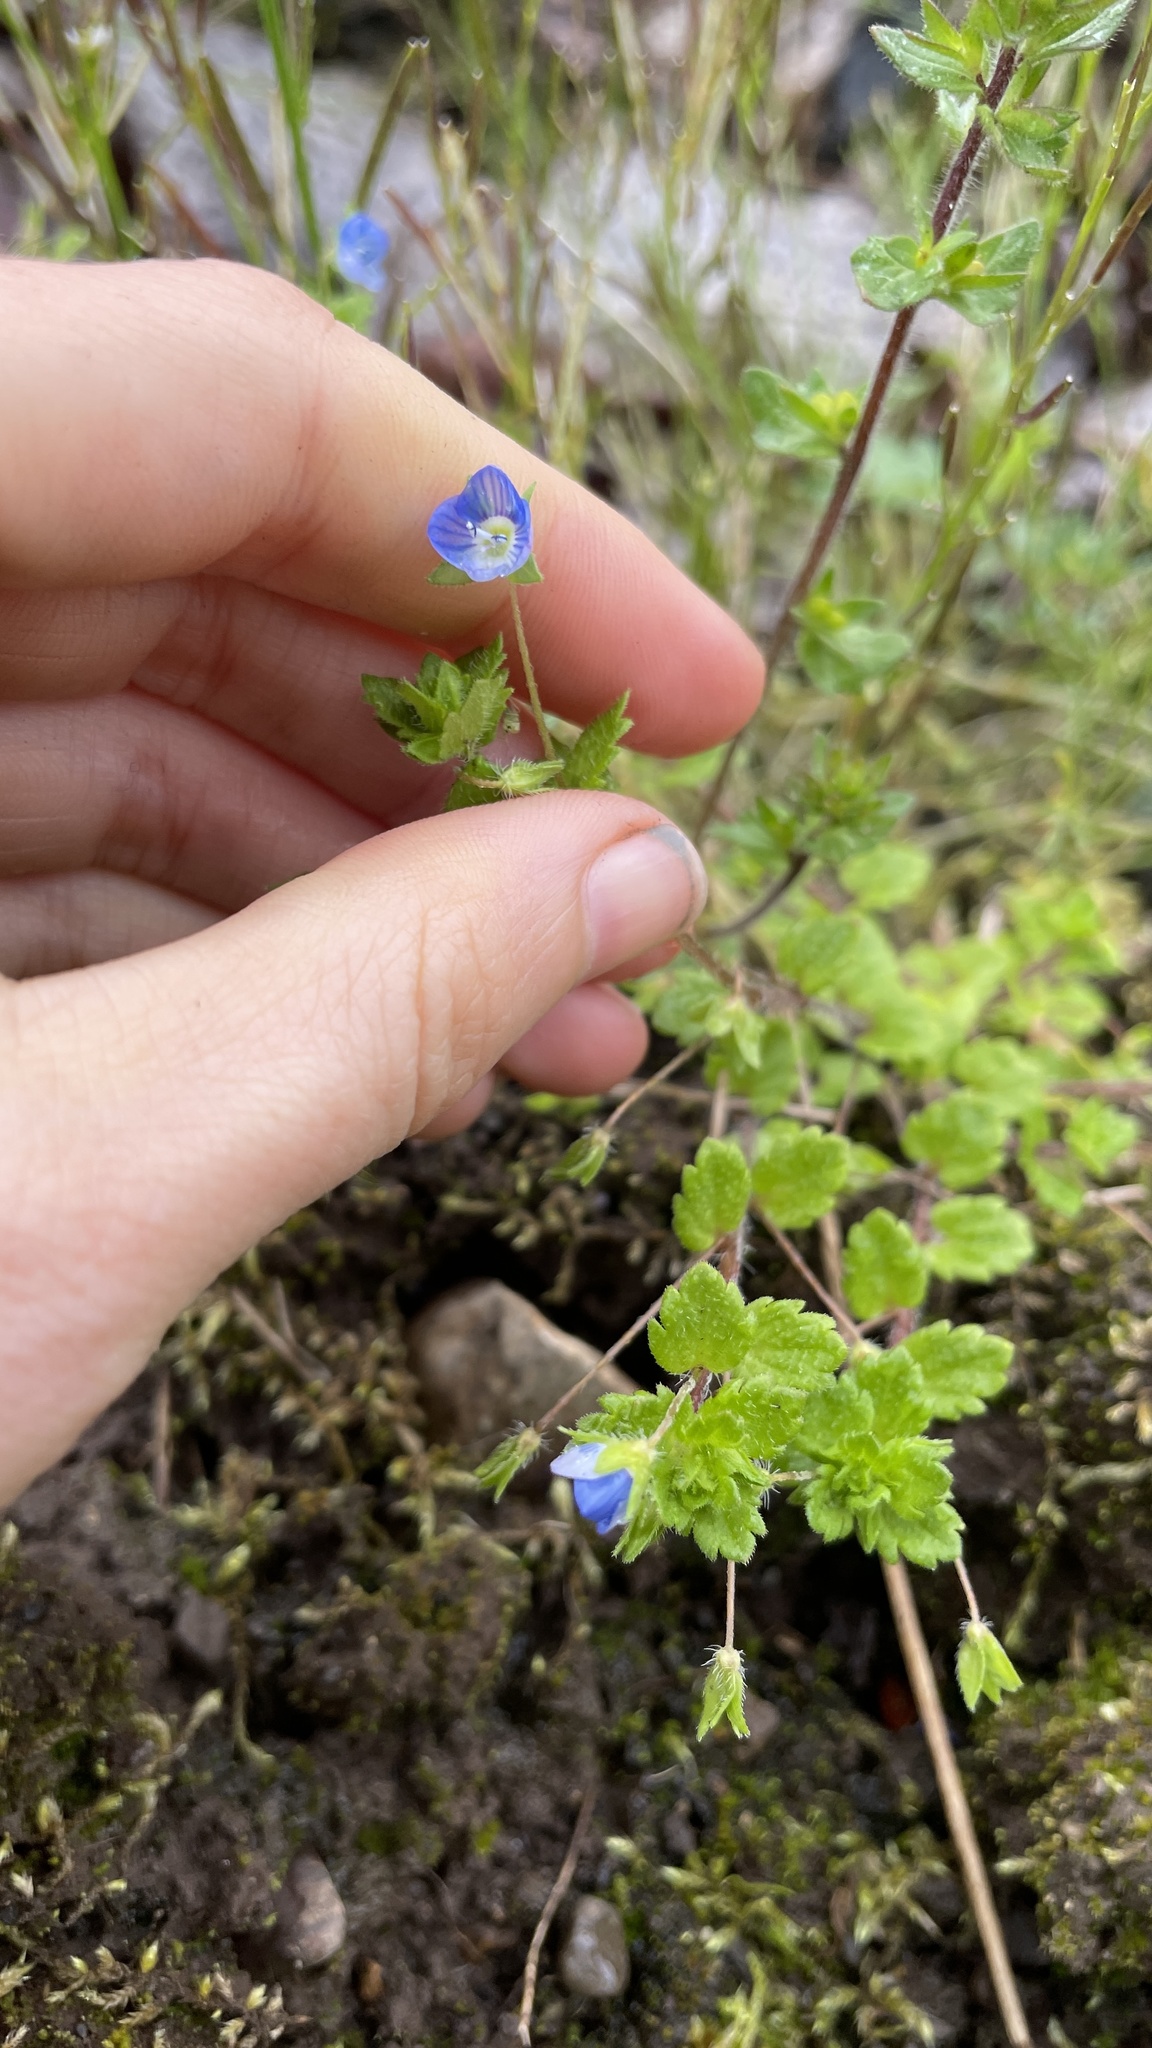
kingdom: Plantae
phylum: Tracheophyta
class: Magnoliopsida
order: Lamiales
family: Plantaginaceae
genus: Veronica
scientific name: Veronica persica
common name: Common field-speedwell
